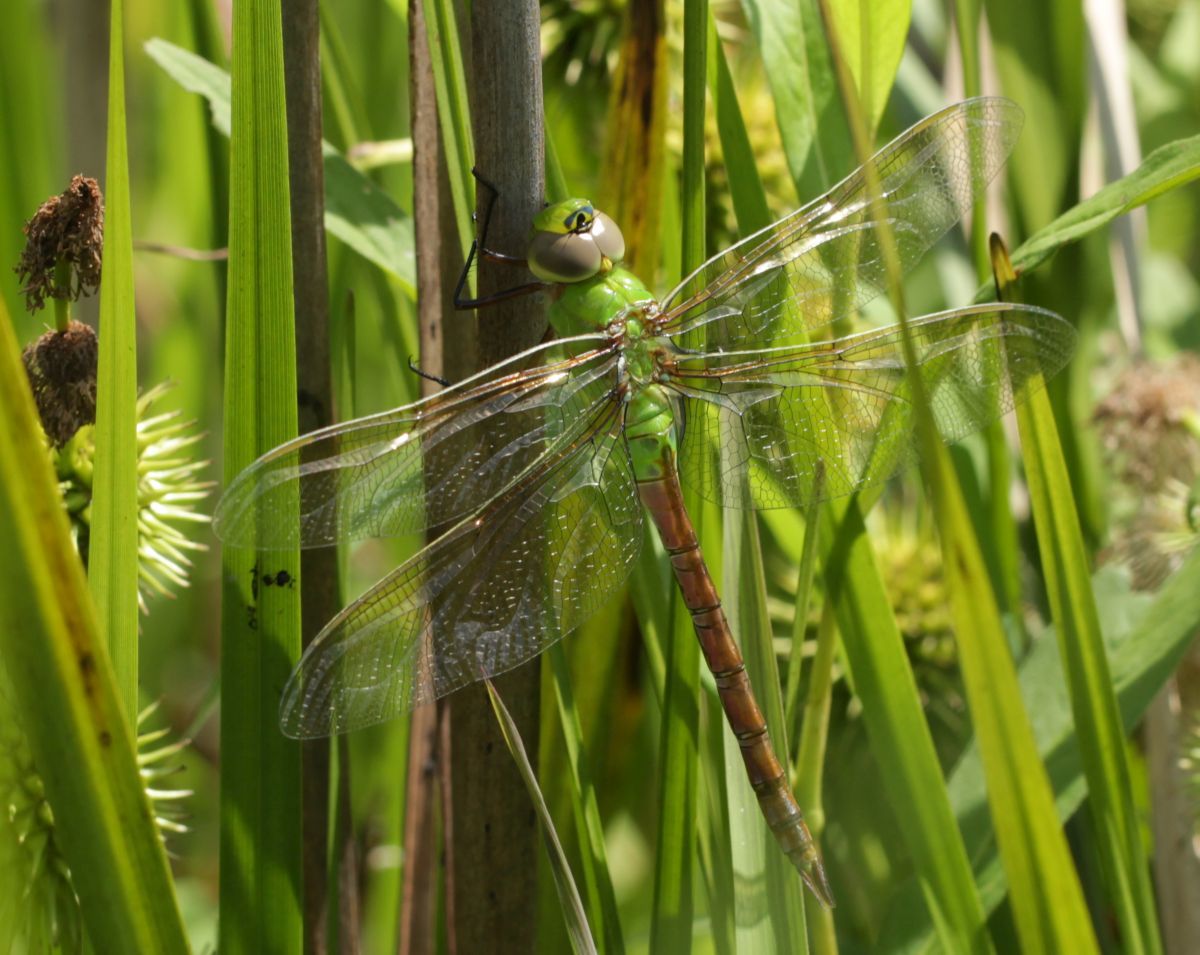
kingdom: Animalia
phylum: Arthropoda
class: Insecta
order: Odonata
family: Aeshnidae
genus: Anax
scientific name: Anax junius
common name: Common green darner
